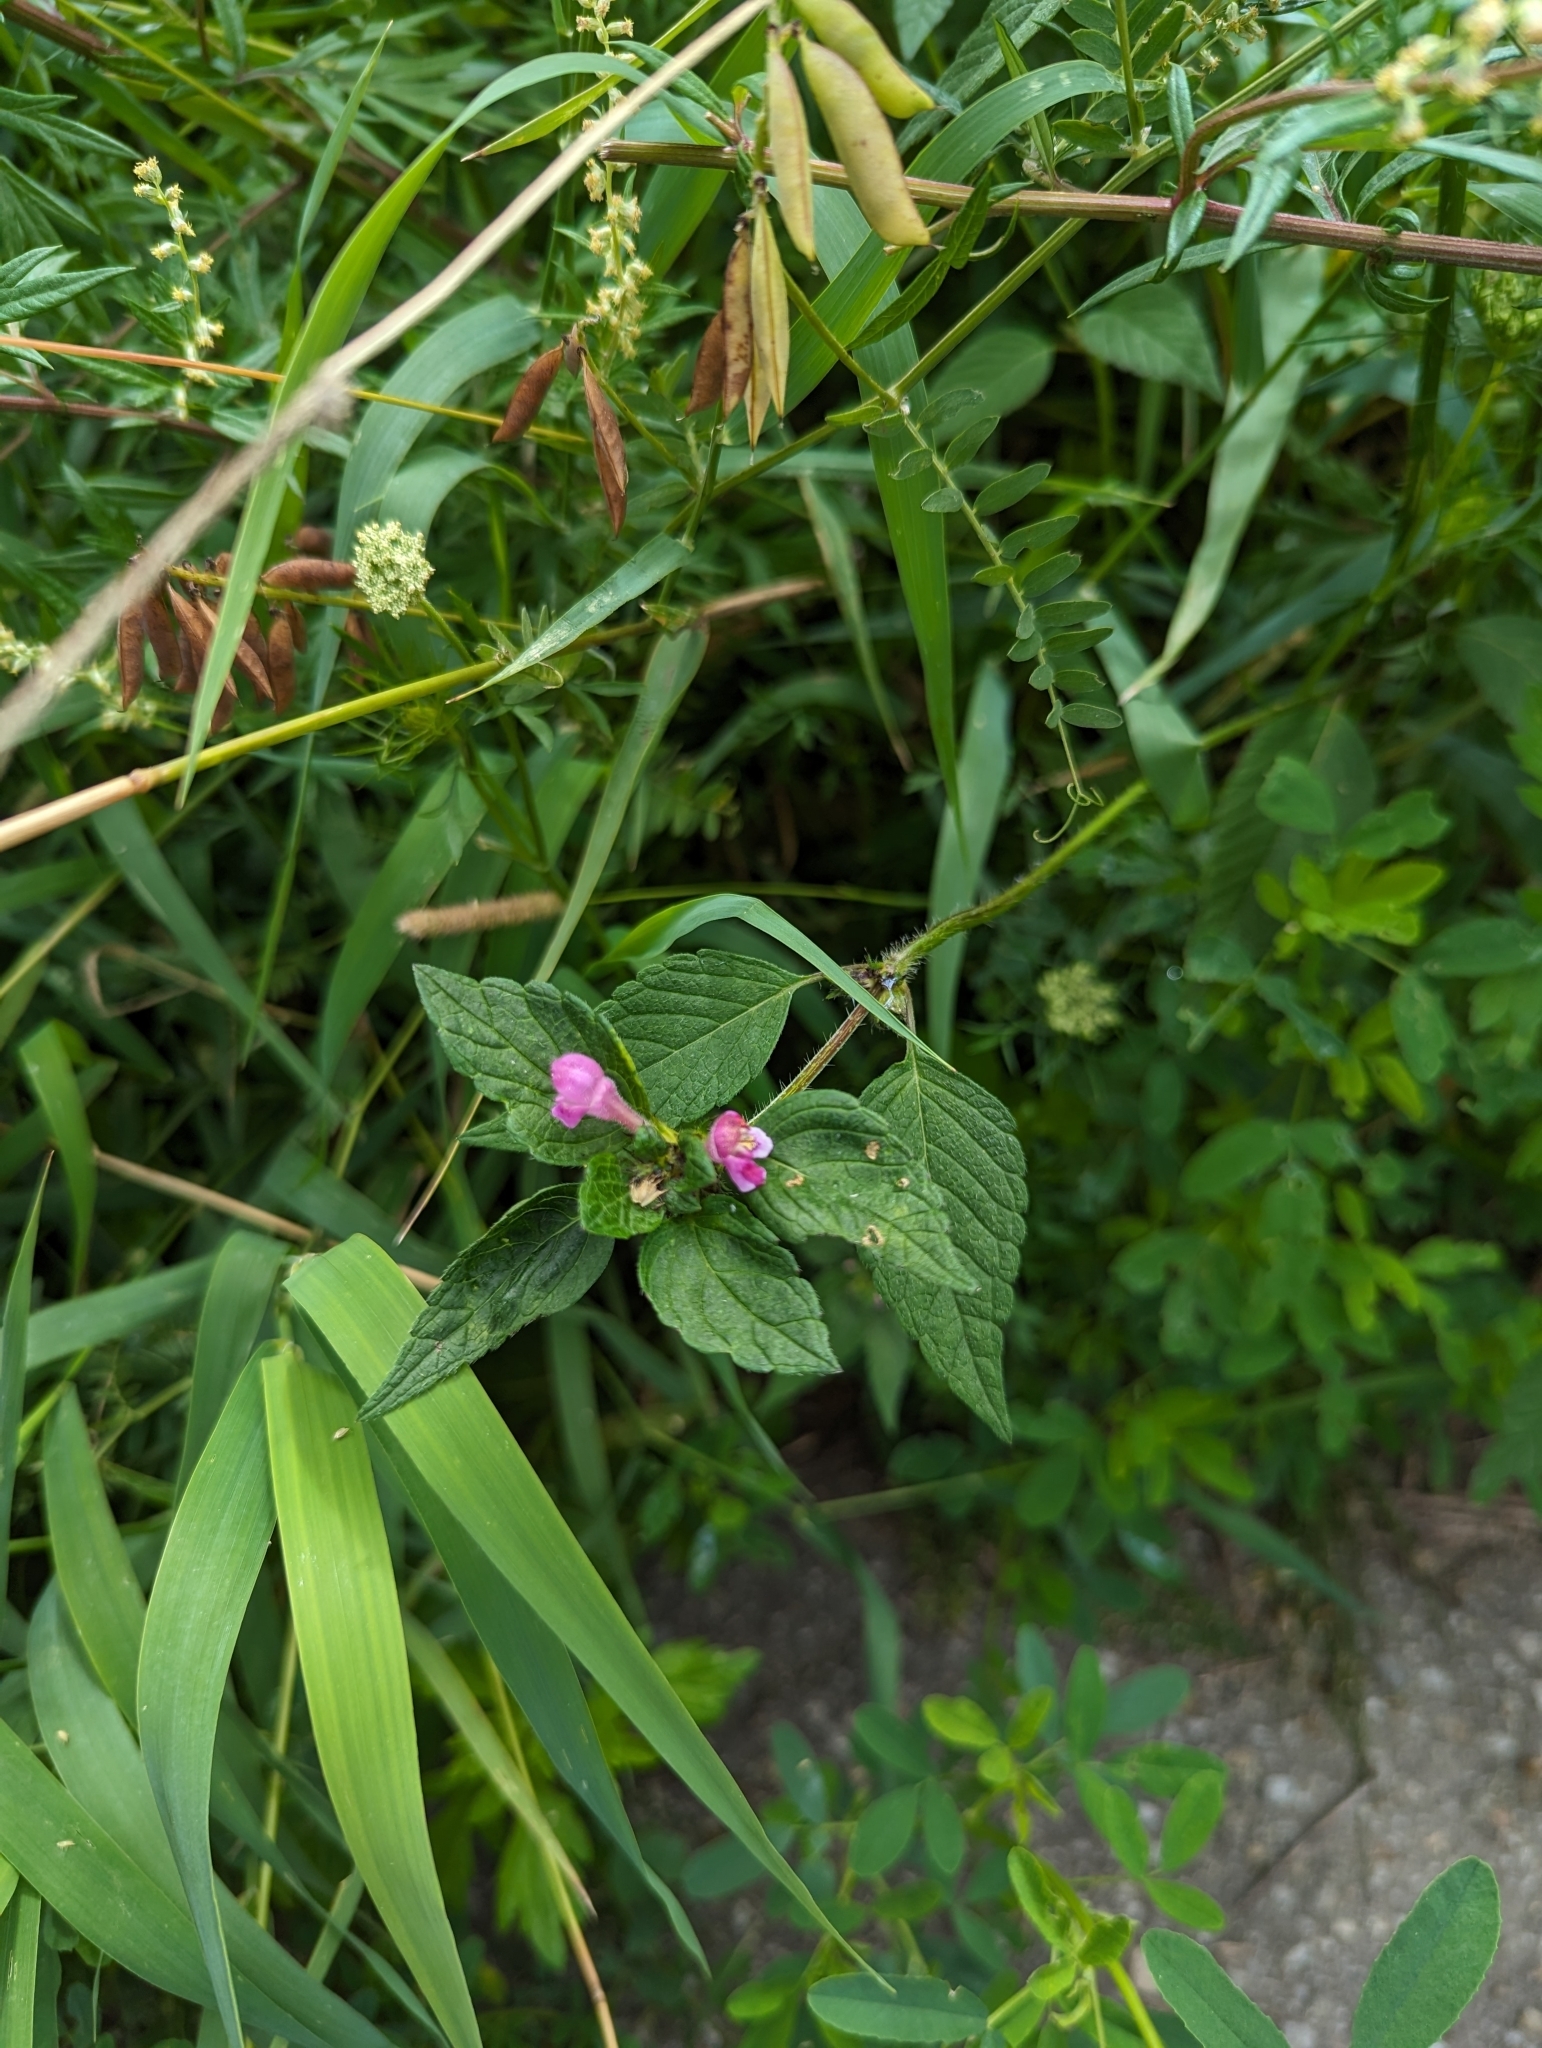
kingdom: Plantae
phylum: Tracheophyta
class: Magnoliopsida
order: Lamiales
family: Lamiaceae
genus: Galeopsis
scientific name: Galeopsis tetrahit
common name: Common hemp-nettle
